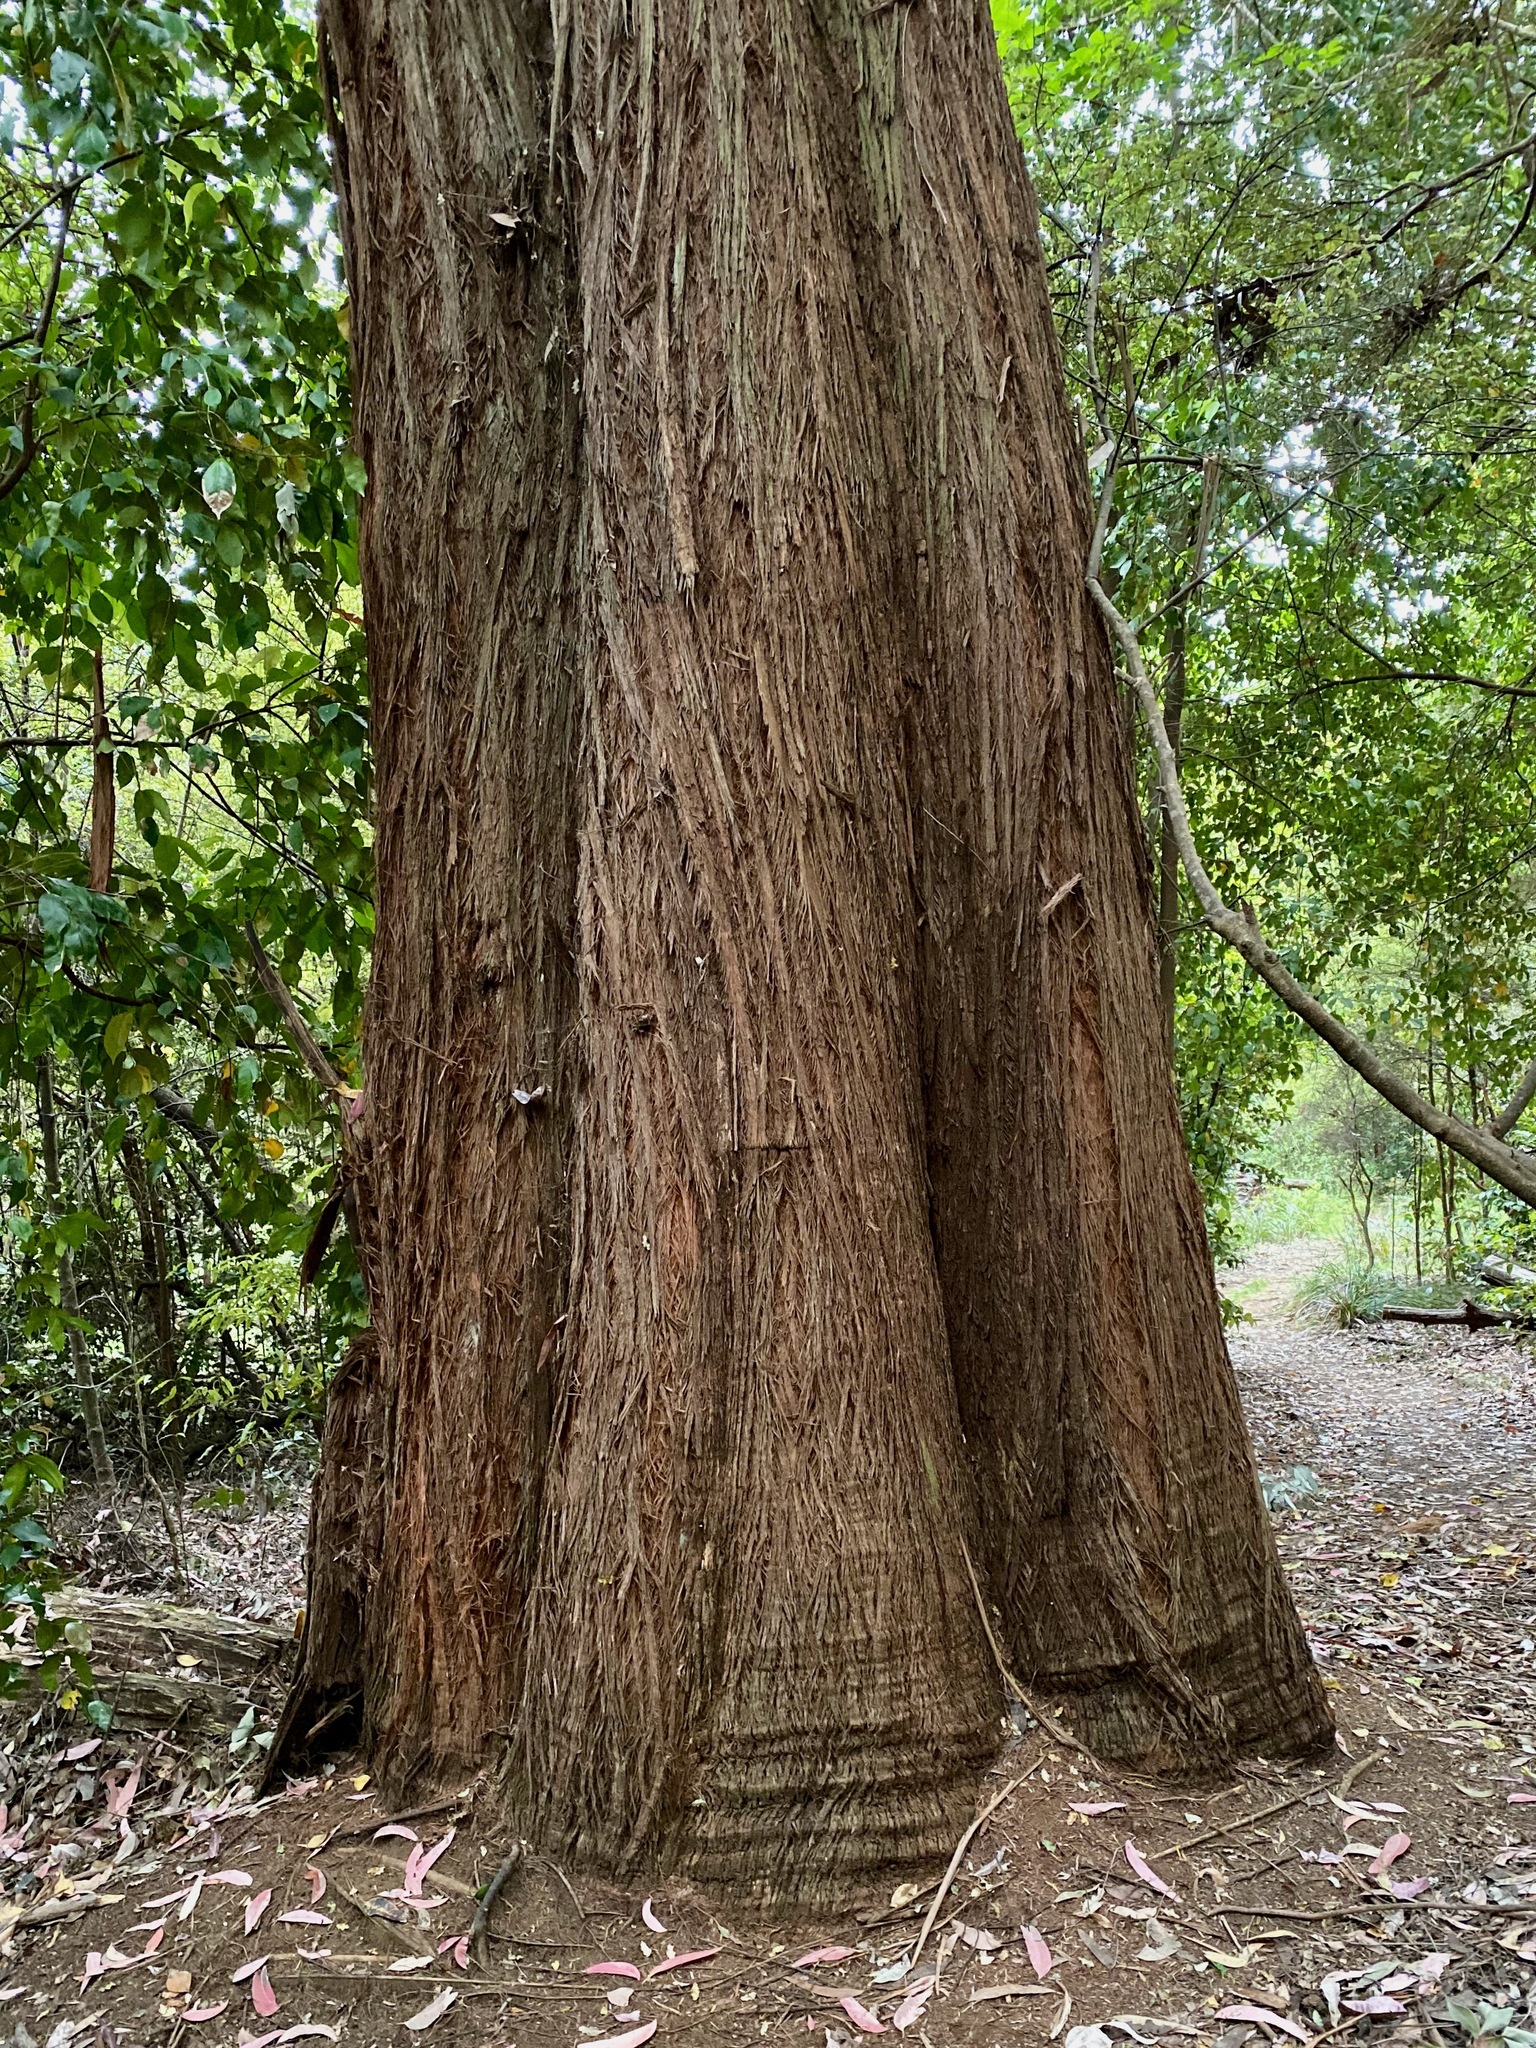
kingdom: Plantae
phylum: Tracheophyta
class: Pinopsida
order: Pinales
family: Podocarpaceae
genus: Podocarpus
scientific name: Podocarpus totara
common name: Totara
